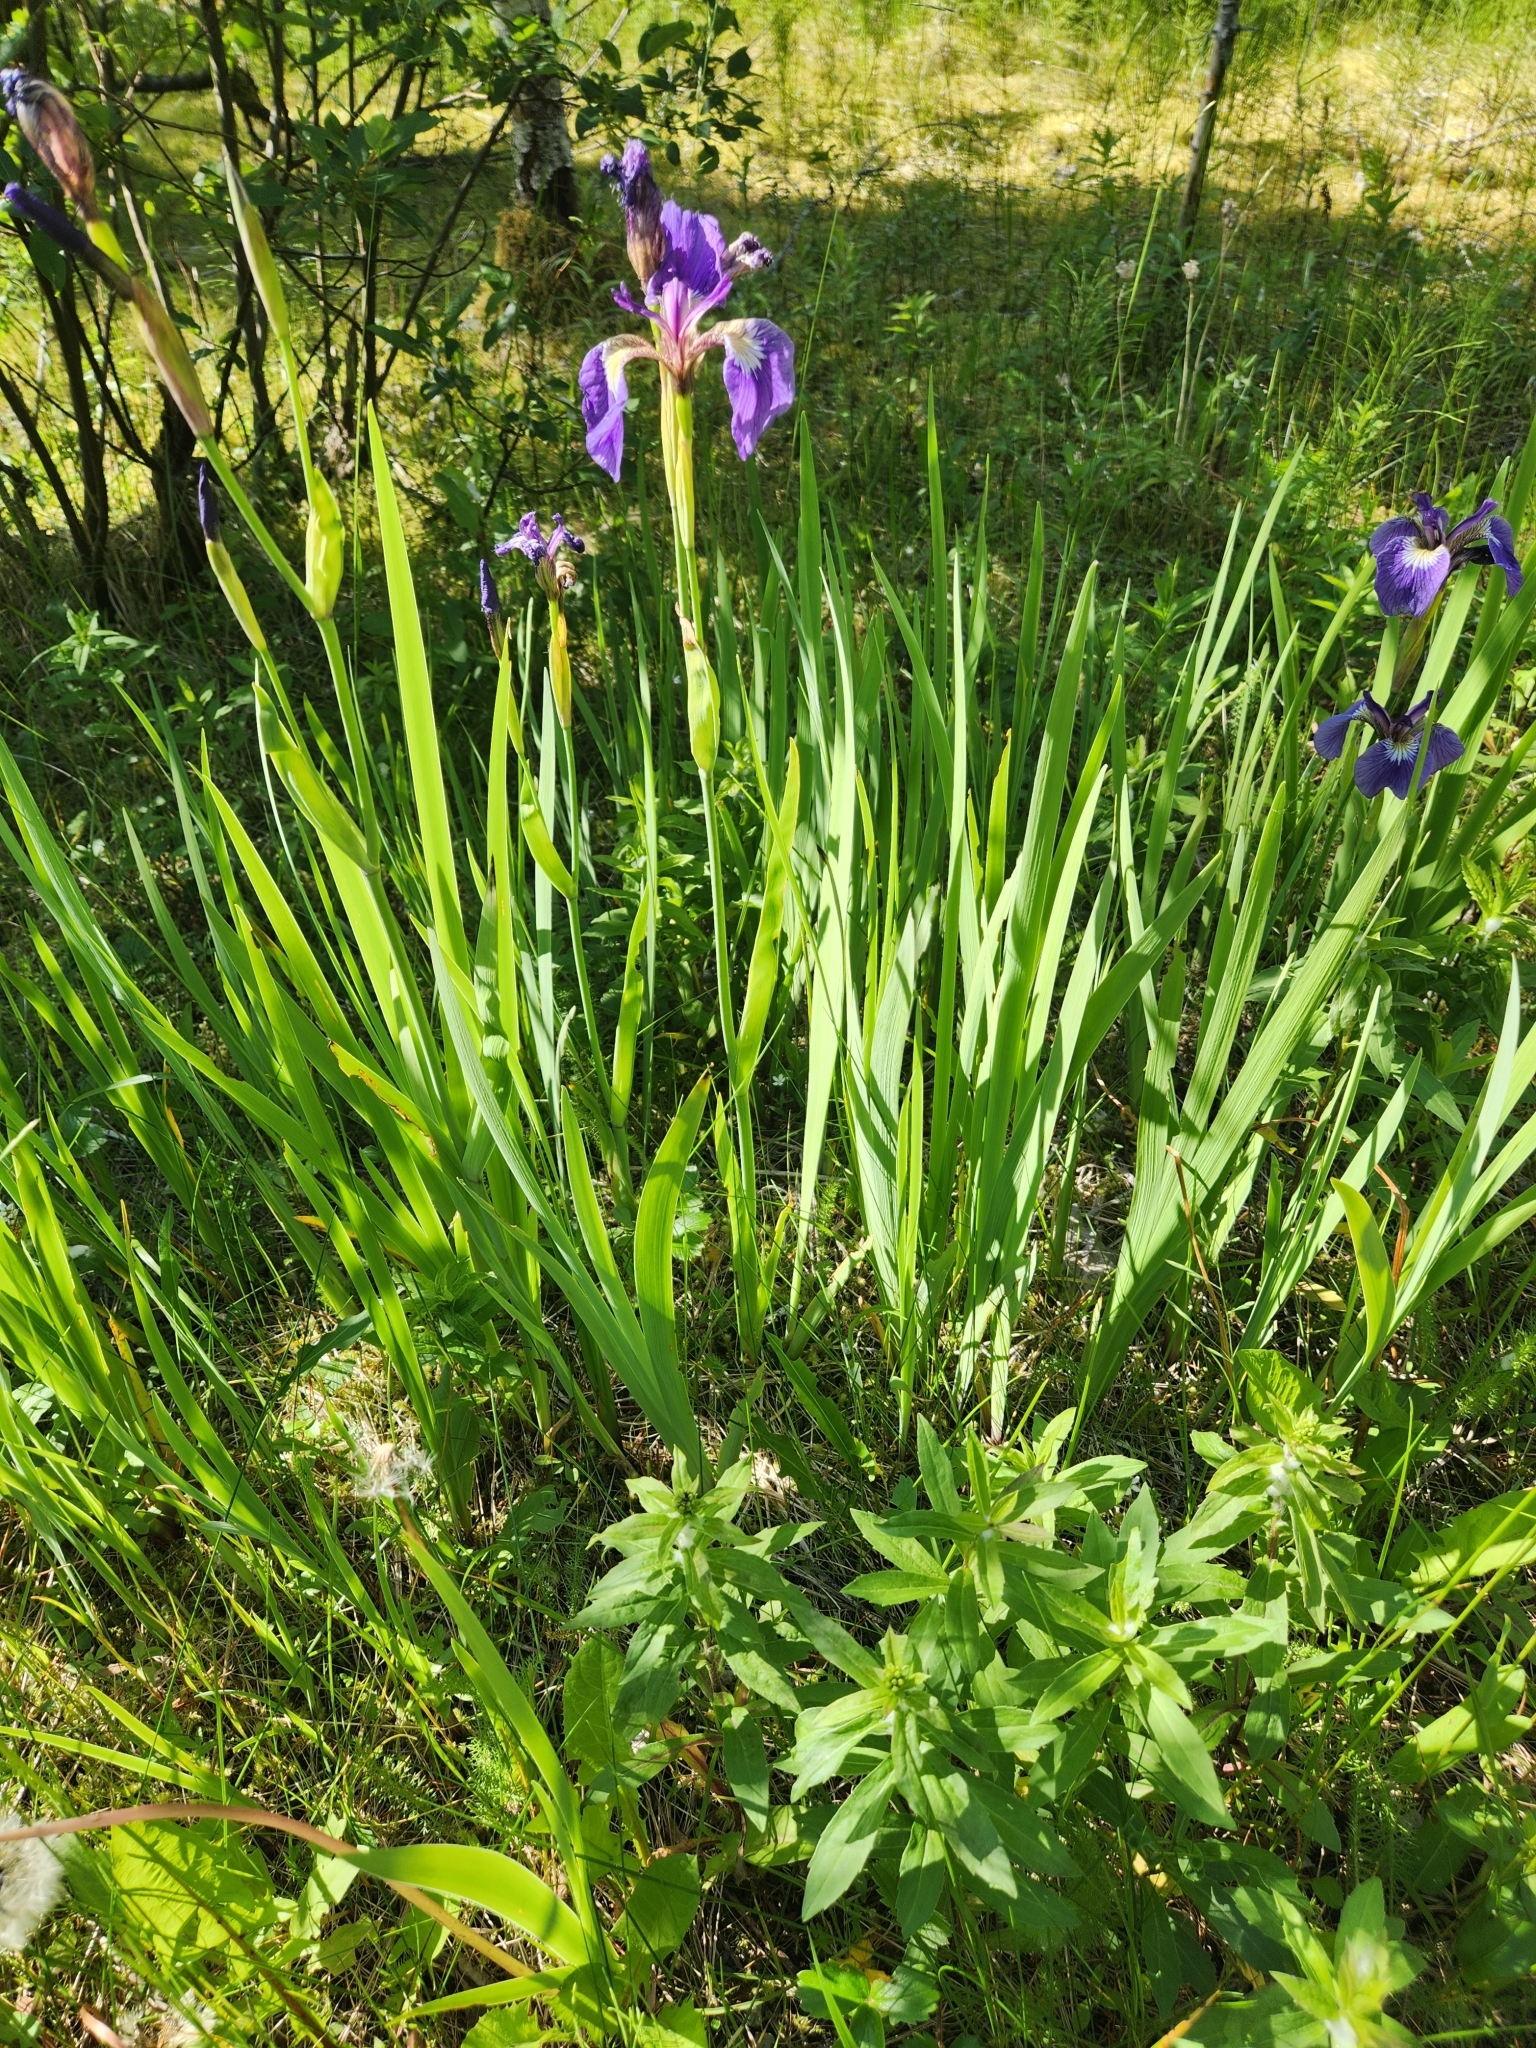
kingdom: Plantae
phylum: Tracheophyta
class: Liliopsida
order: Asparagales
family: Iridaceae
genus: Iris
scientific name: Iris setosa
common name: Arctic blue flag
